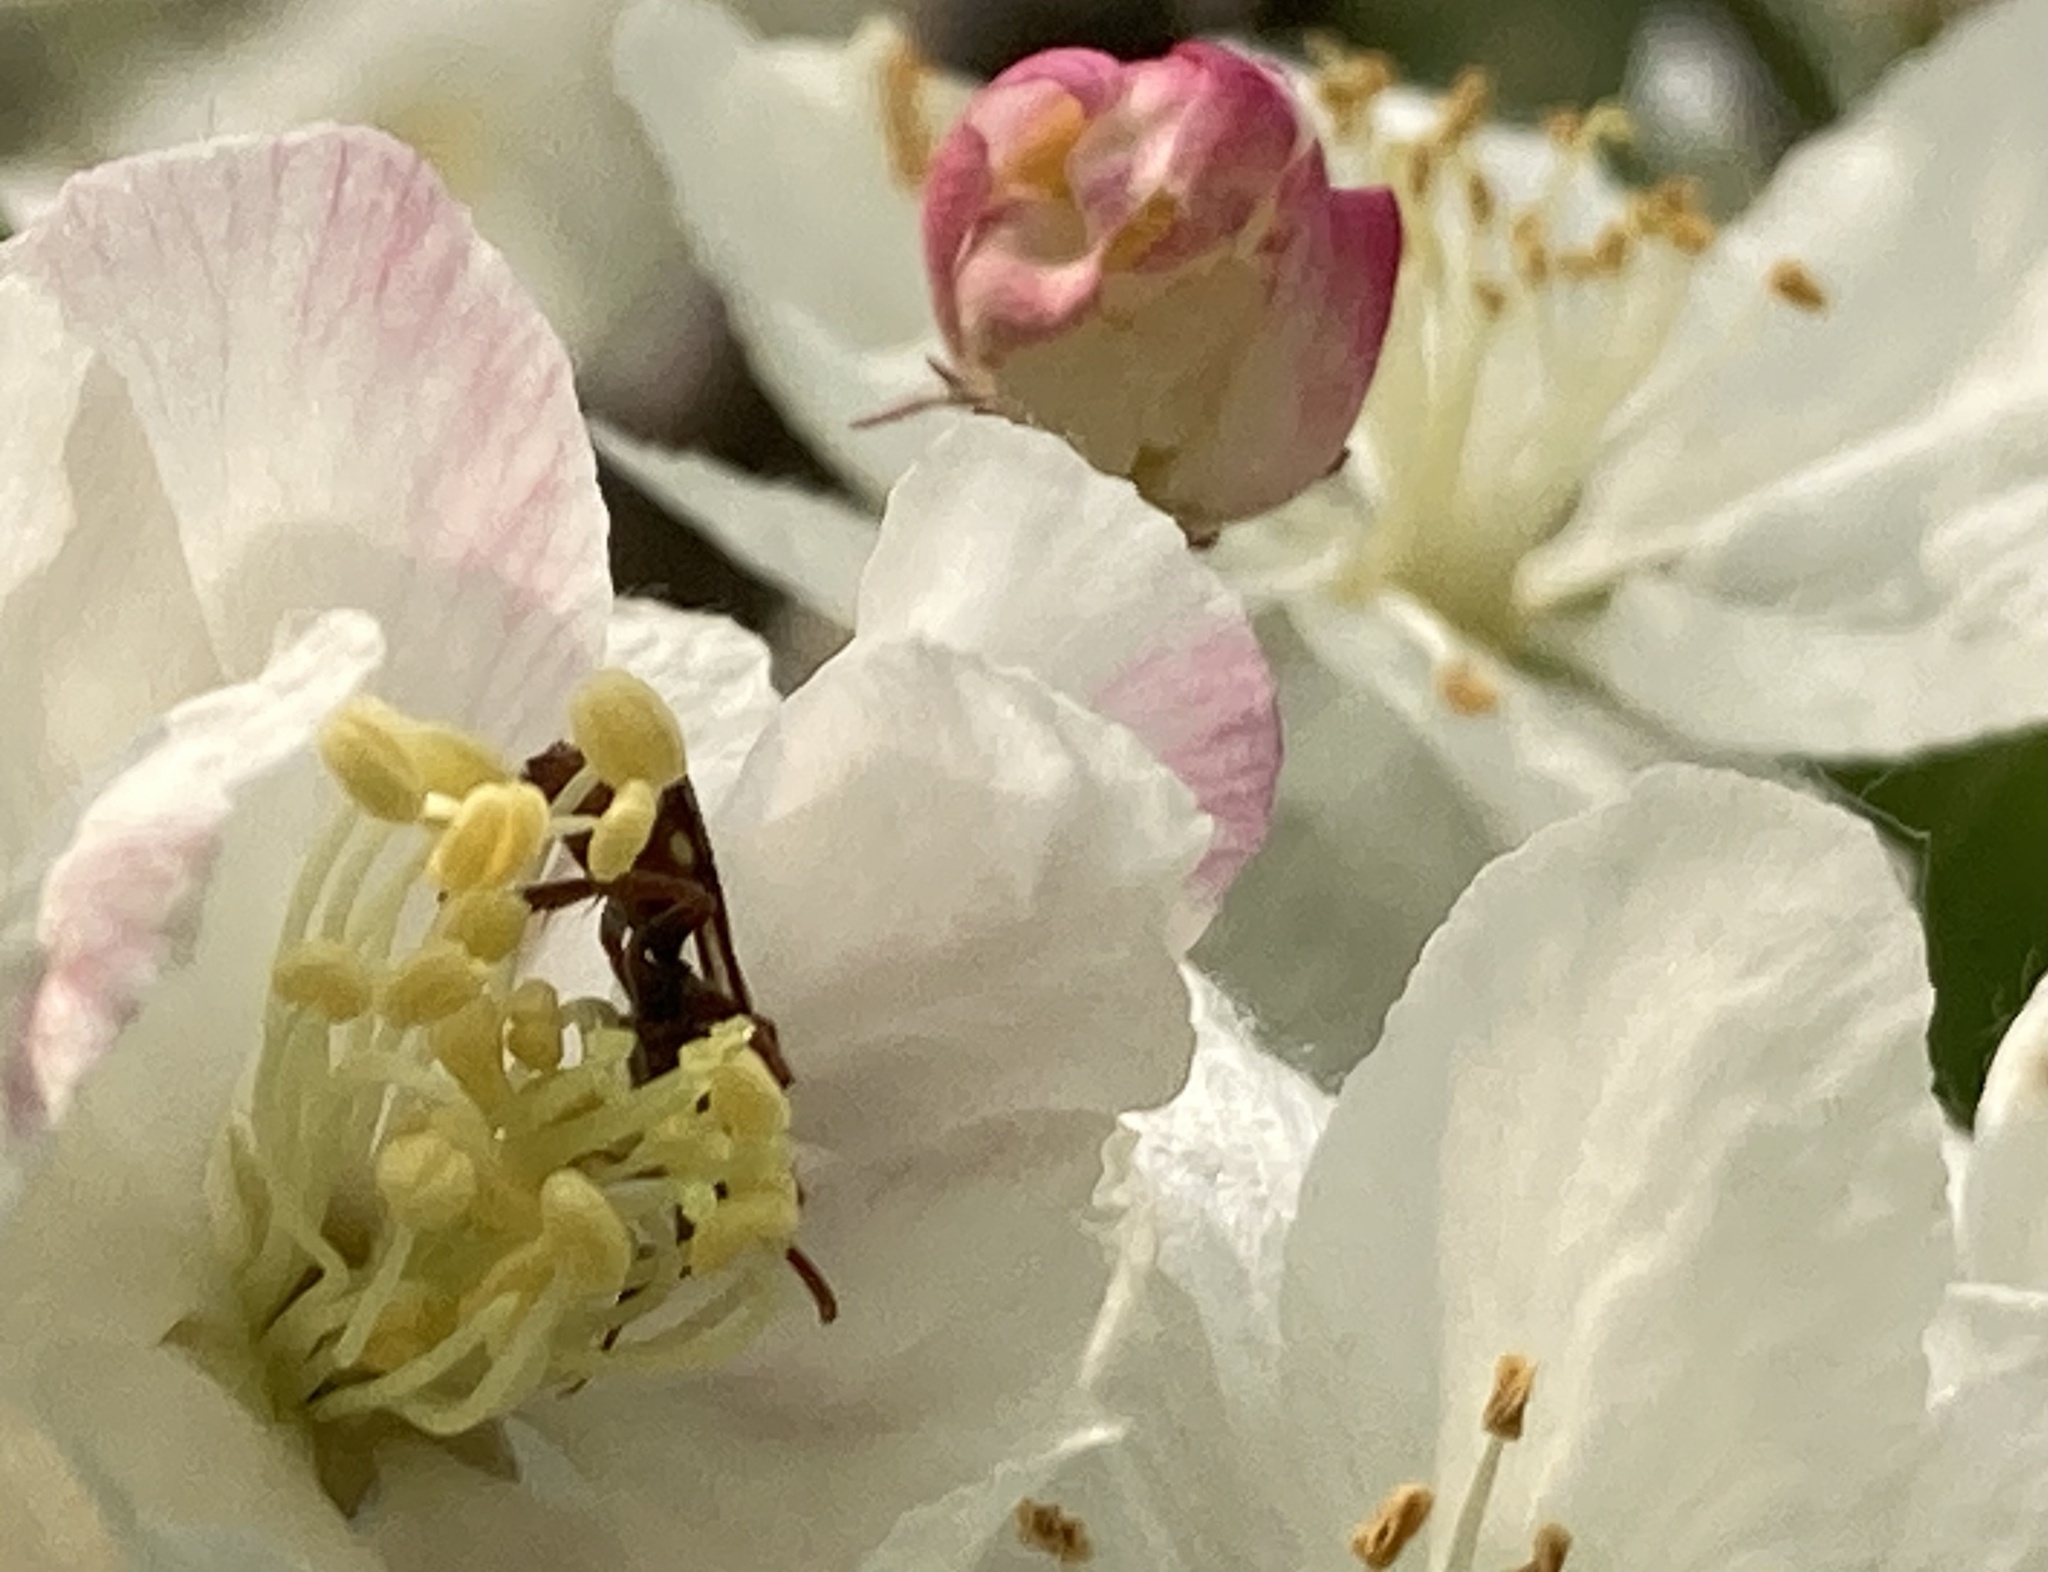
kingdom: Animalia
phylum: Arthropoda
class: Insecta
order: Hymenoptera
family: Apidae
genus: Nomada
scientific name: Nomada
